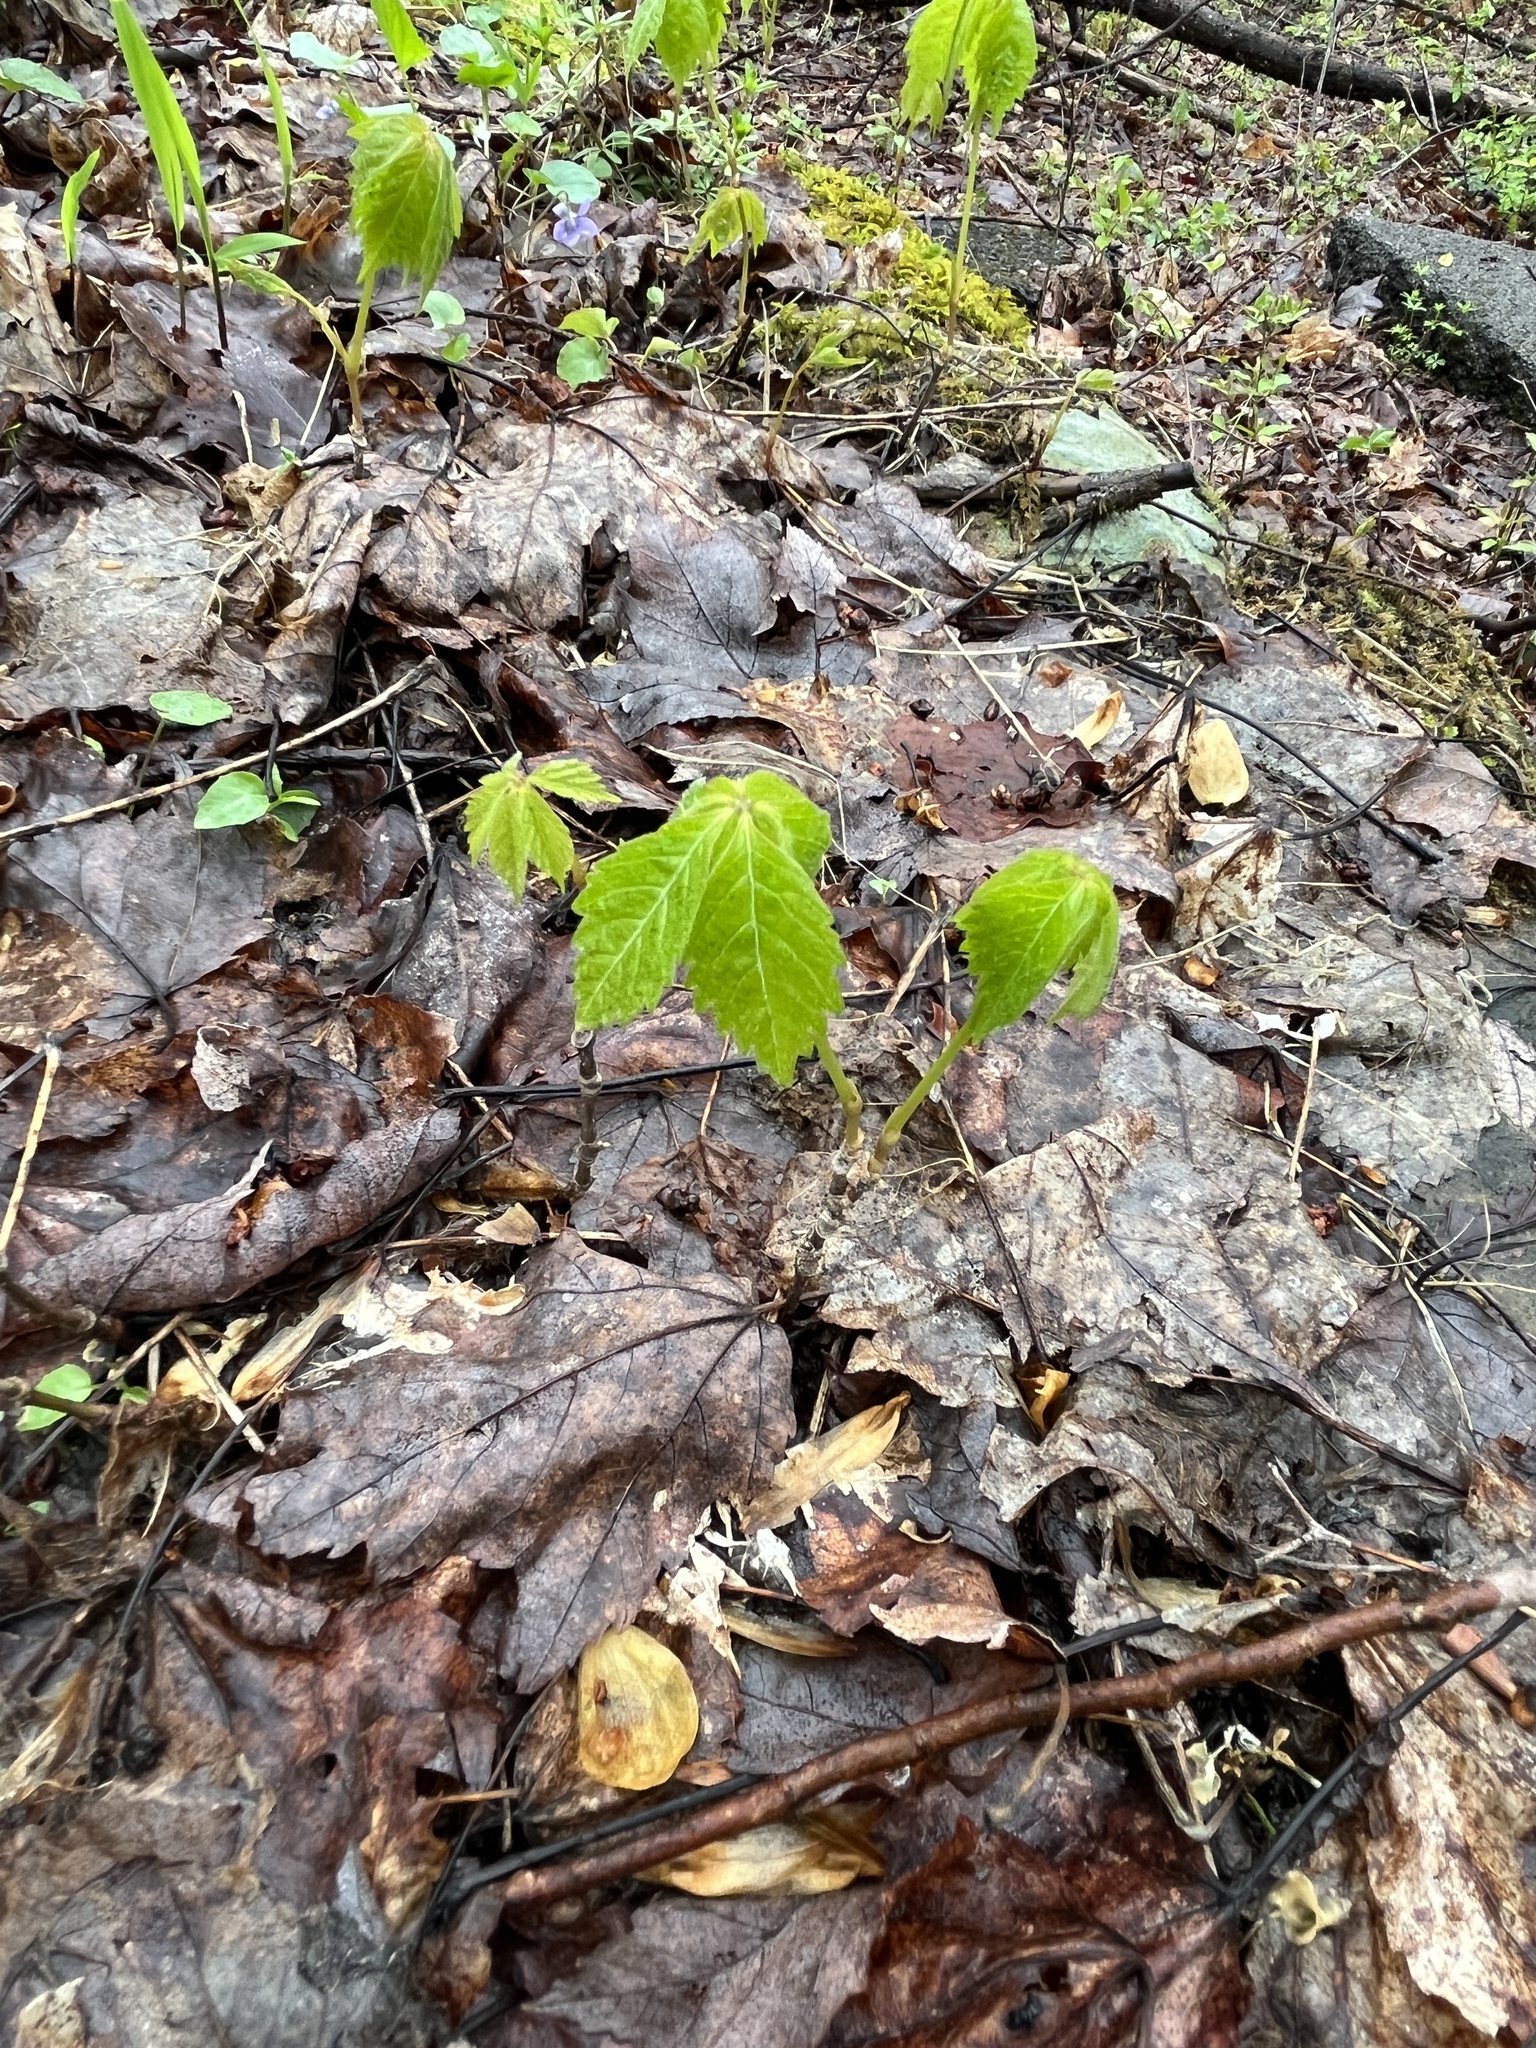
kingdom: Plantae
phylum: Tracheophyta
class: Magnoliopsida
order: Vitales
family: Vitaceae
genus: Parthenocissus
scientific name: Parthenocissus quinquefolia
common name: Virginia-creeper
